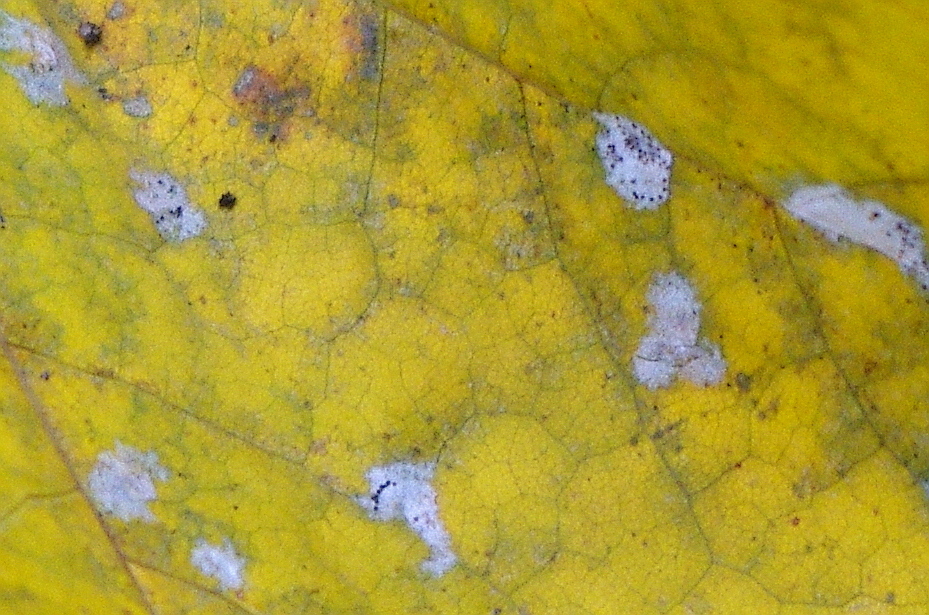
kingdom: Fungi
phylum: Ascomycota
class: Leotiomycetes
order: Helotiales
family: Erysiphaceae
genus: Sawadaea
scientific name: Sawadaea tulasnei
